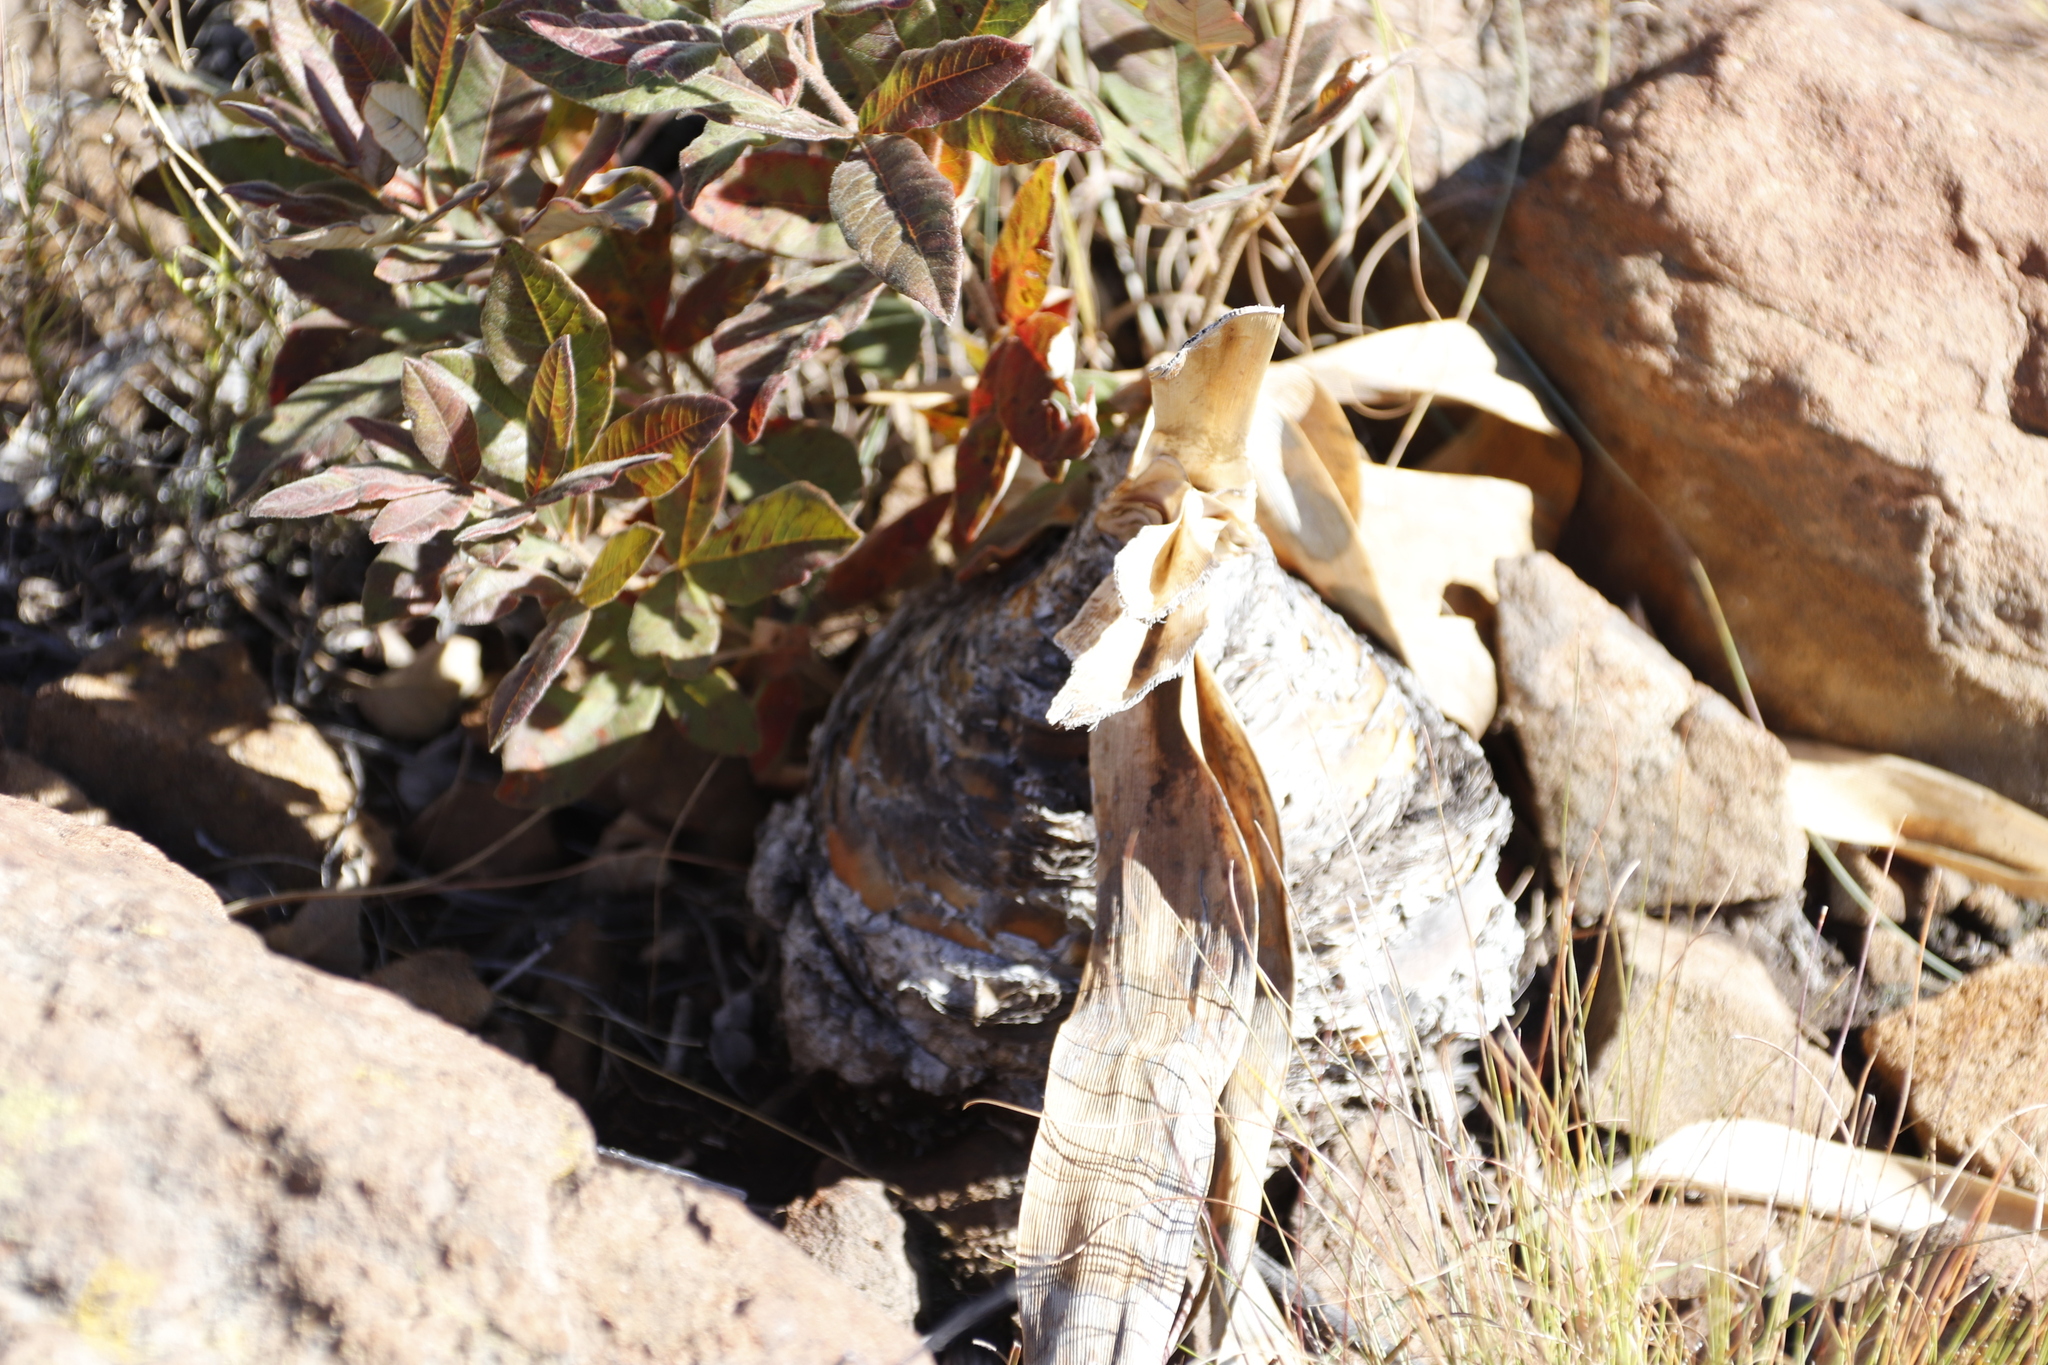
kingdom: Plantae
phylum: Tracheophyta
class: Liliopsida
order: Asparagales
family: Amaryllidaceae
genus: Boophone
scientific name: Boophone disticha
